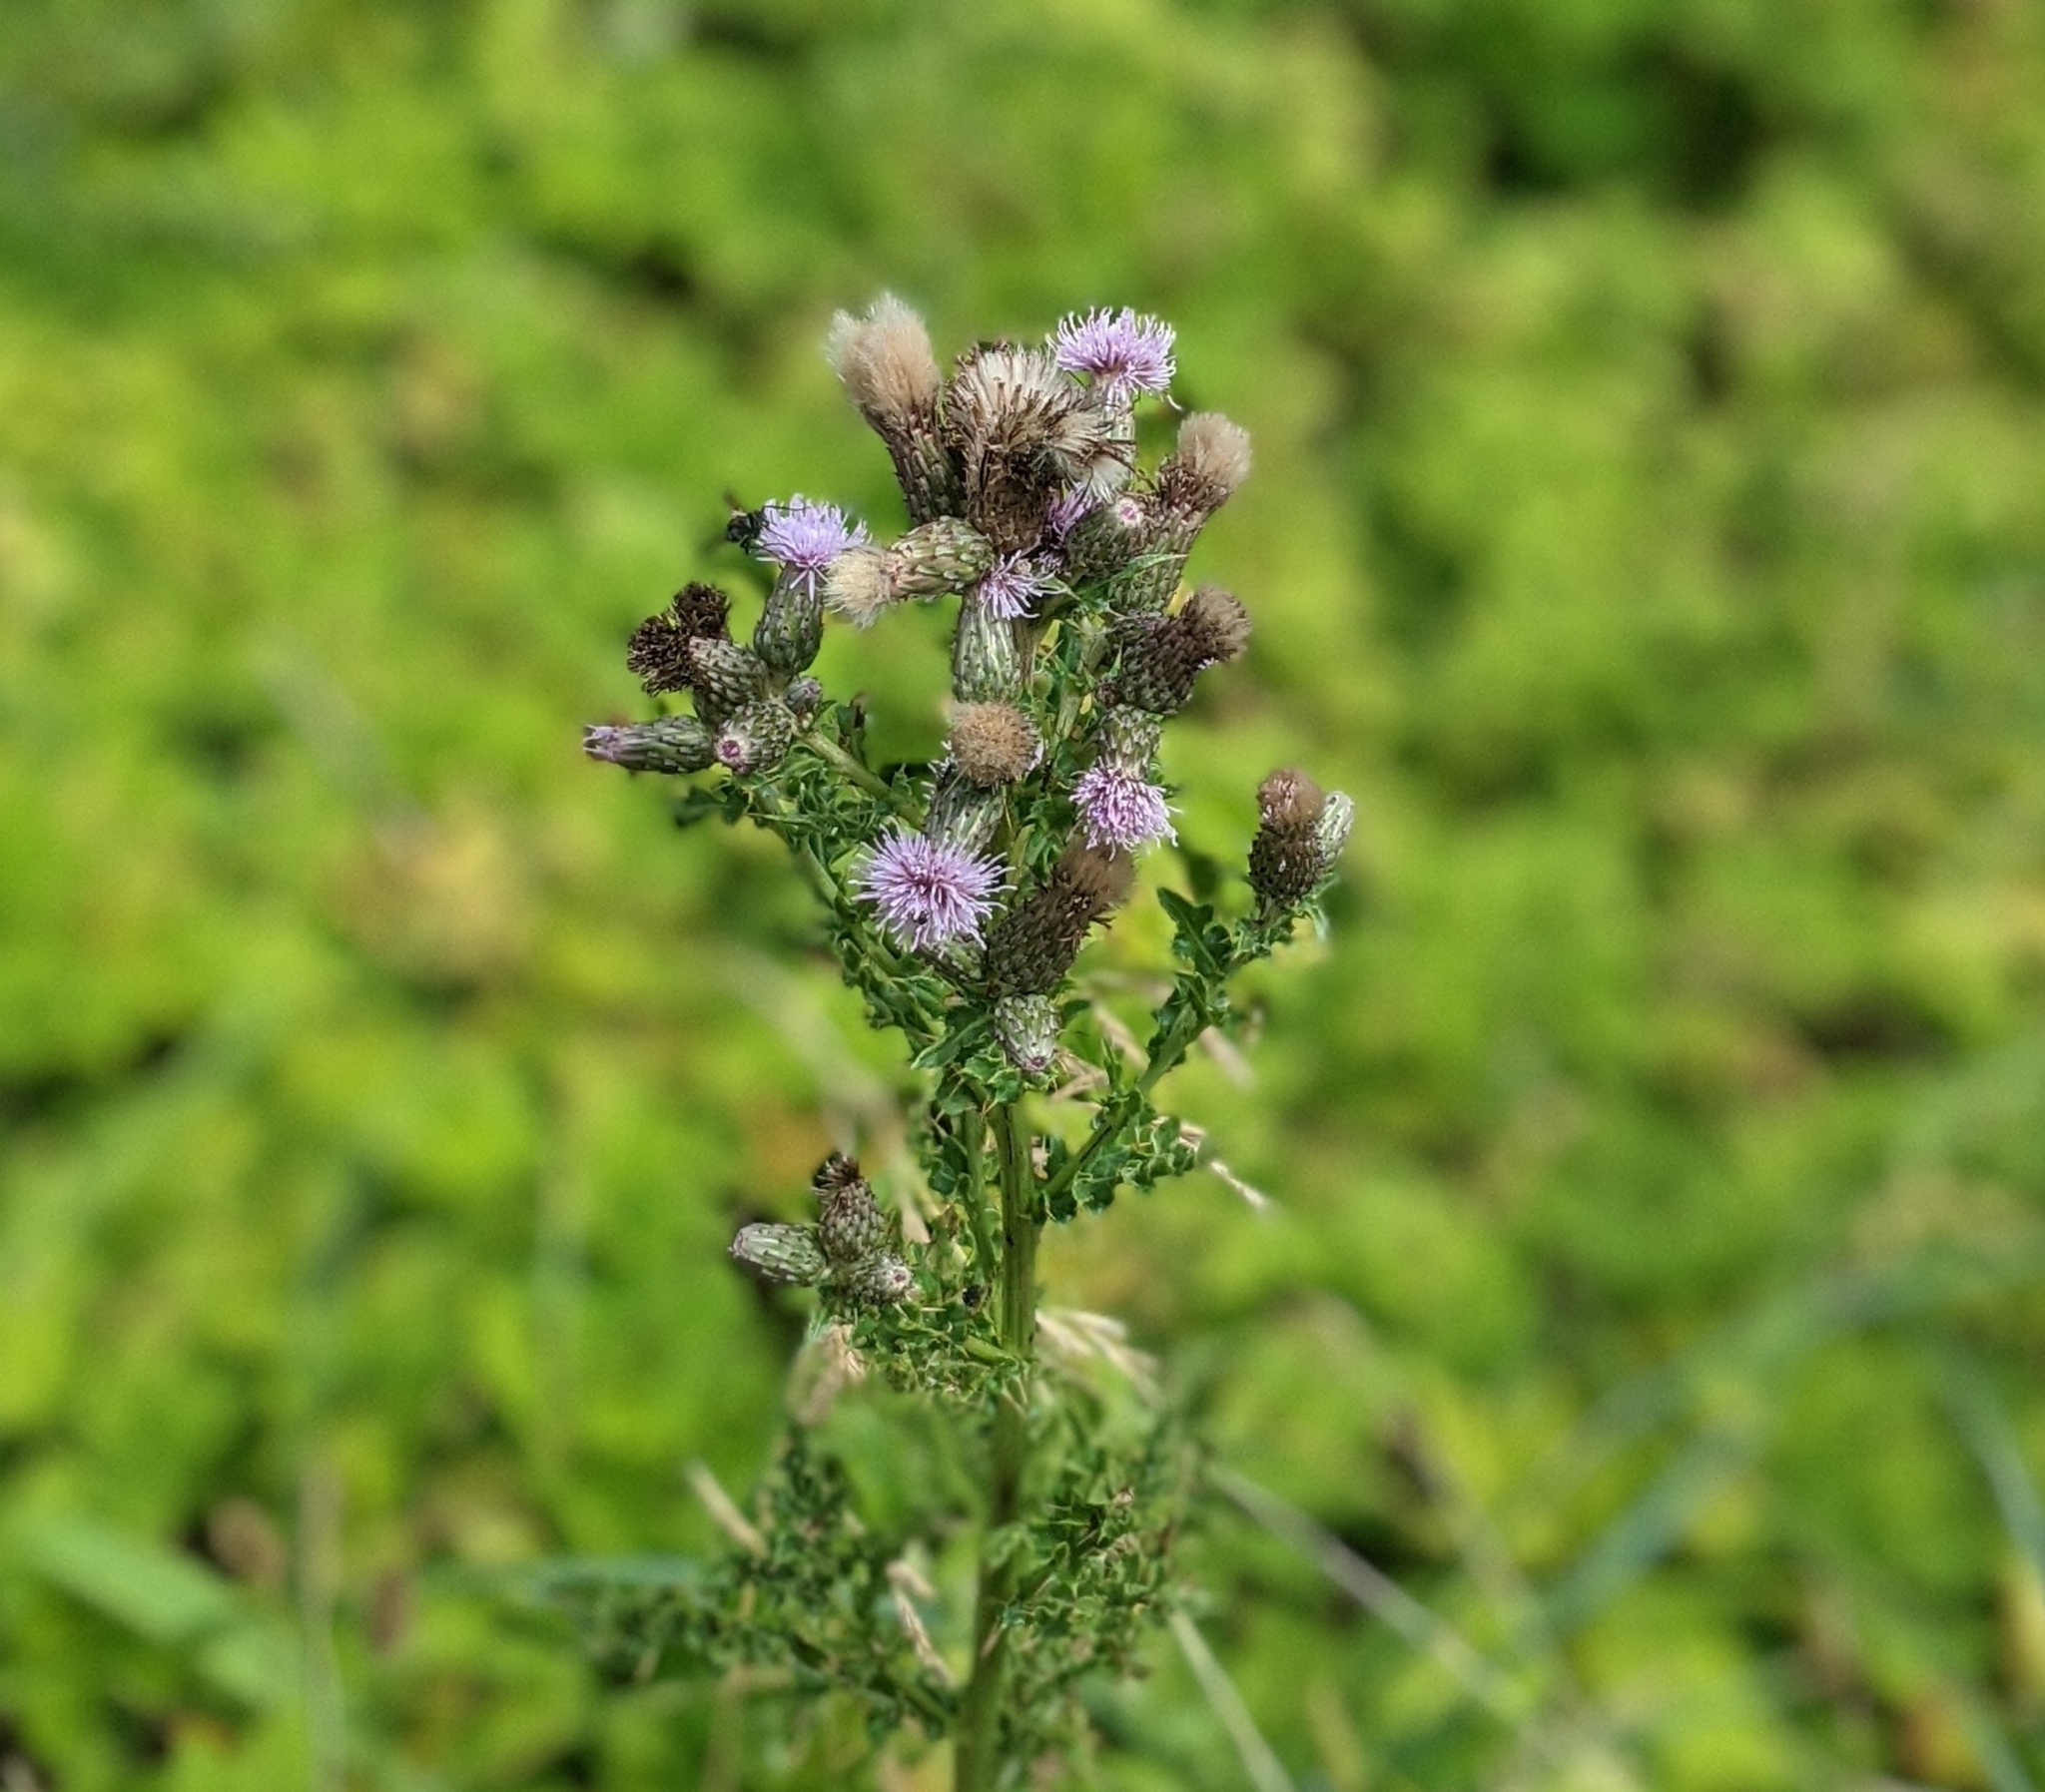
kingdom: Plantae
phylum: Tracheophyta
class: Magnoliopsida
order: Asterales
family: Asteraceae
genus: Cirsium
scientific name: Cirsium arvense
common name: Creeping thistle
